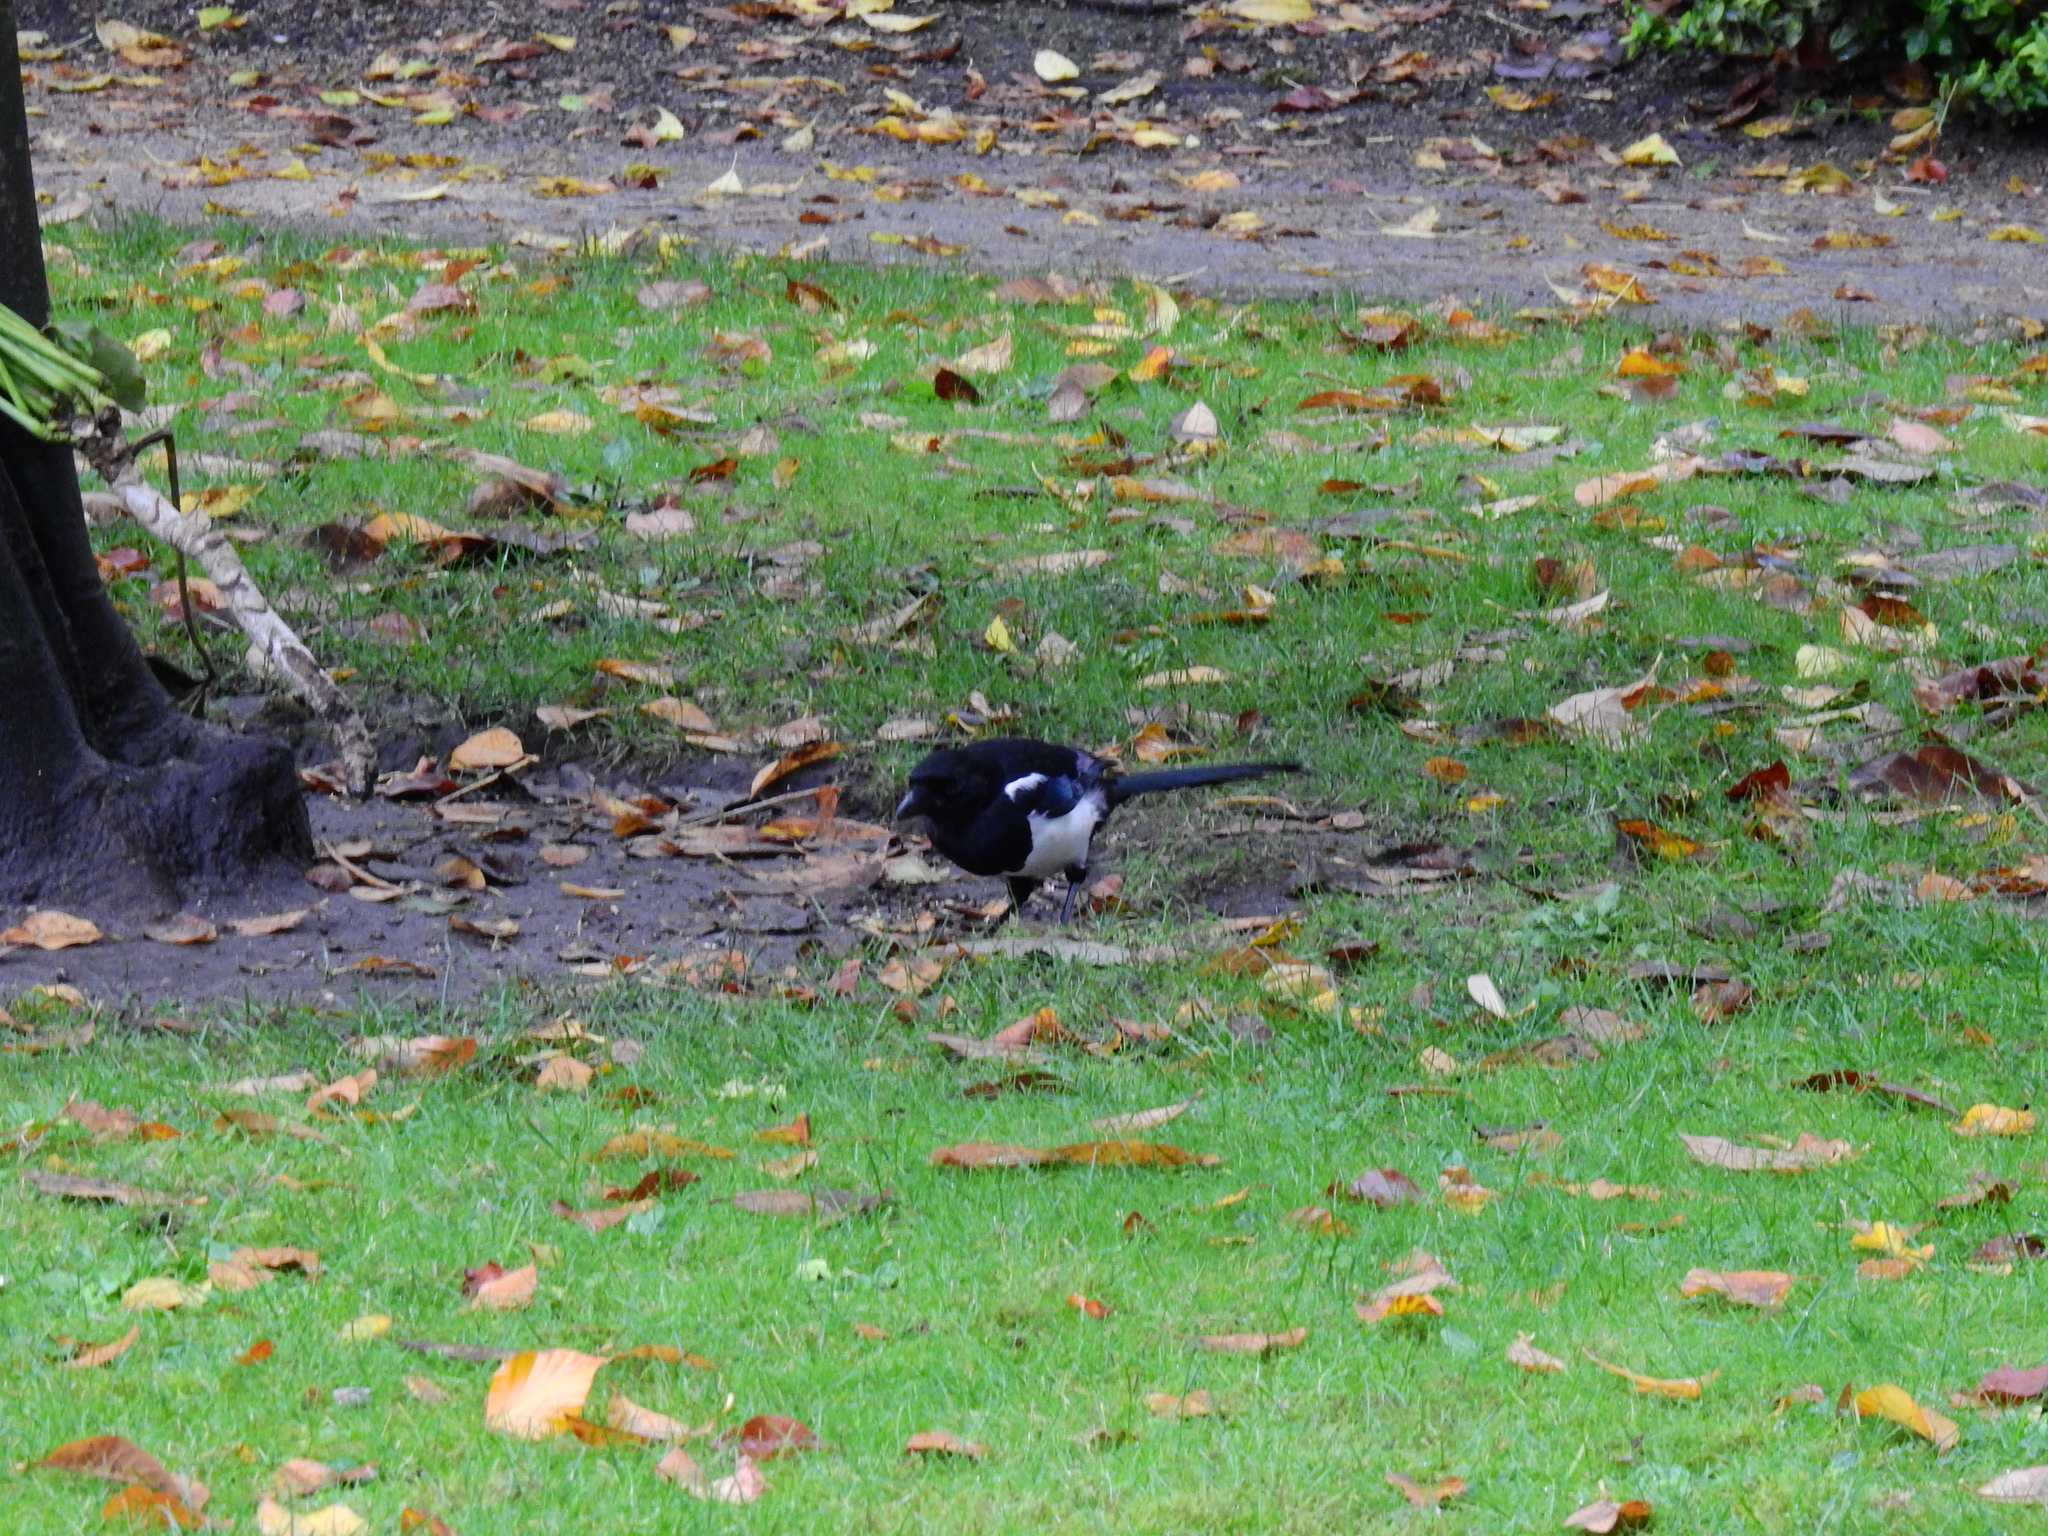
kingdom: Animalia
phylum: Chordata
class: Aves
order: Passeriformes
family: Corvidae
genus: Pica
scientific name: Pica pica
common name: Eurasian magpie
